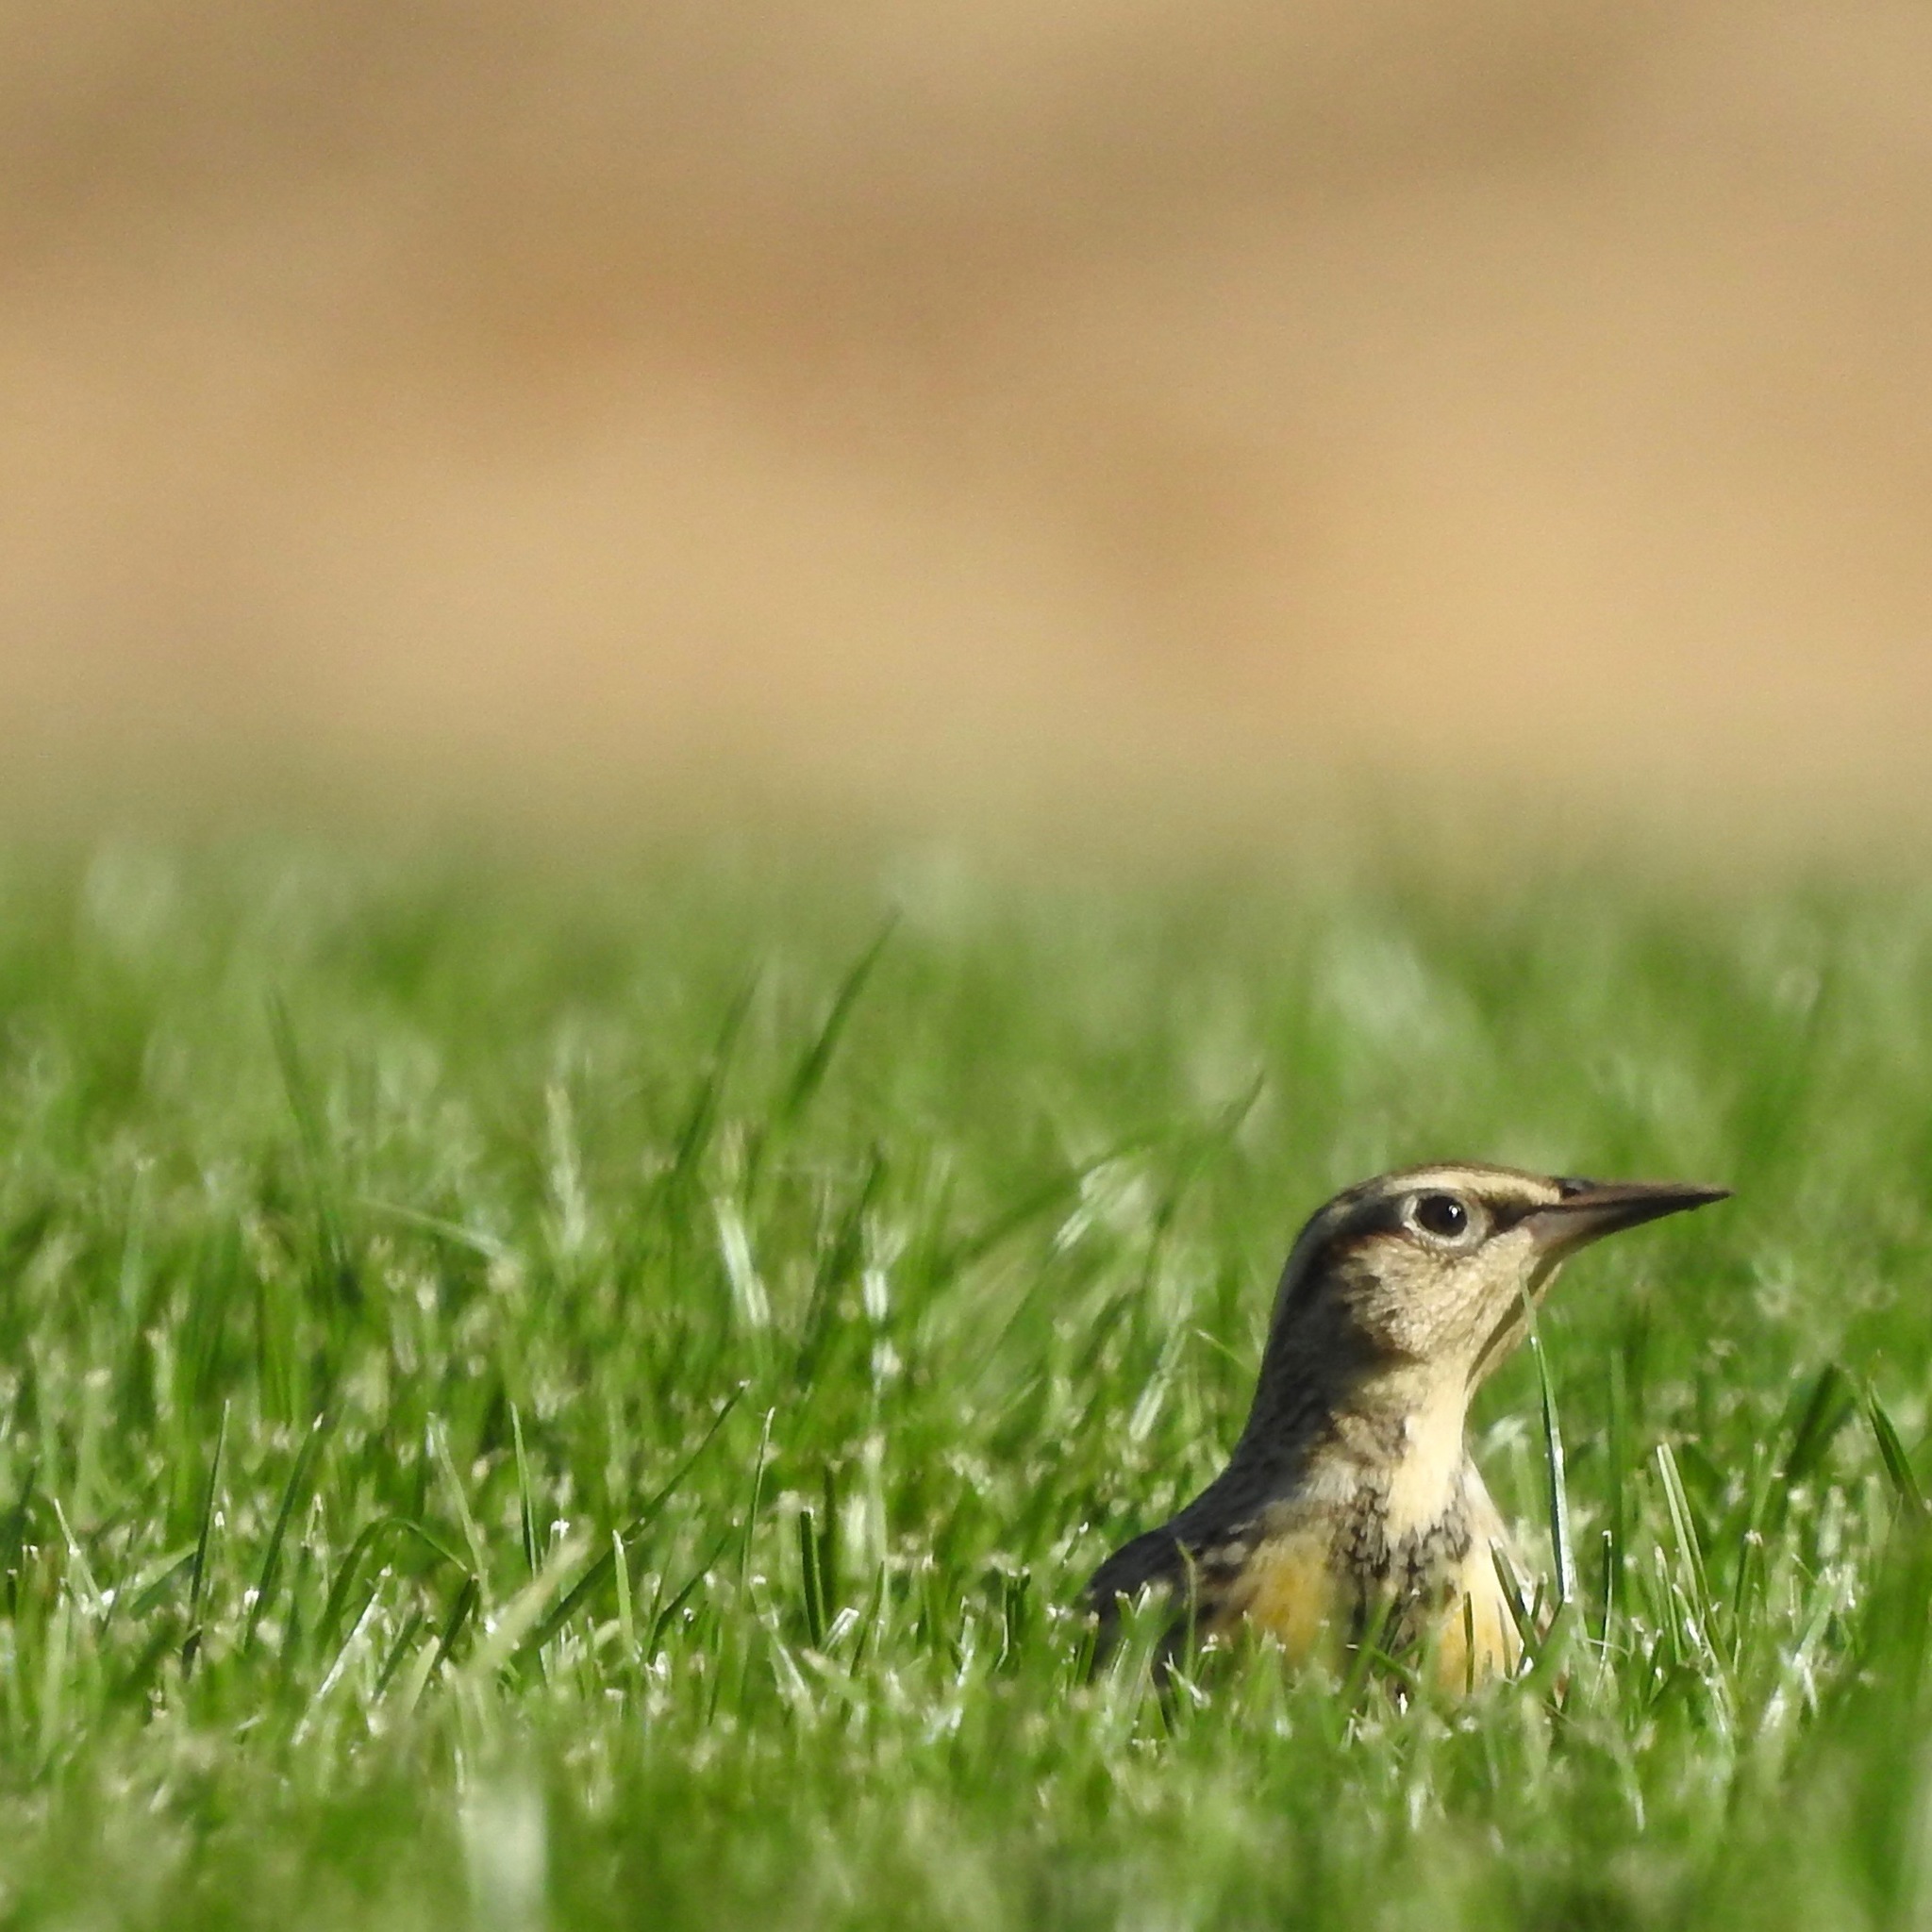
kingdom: Animalia
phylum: Chordata
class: Aves
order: Passeriformes
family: Icteridae
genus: Sturnella
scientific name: Sturnella neglecta
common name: Western meadowlark
